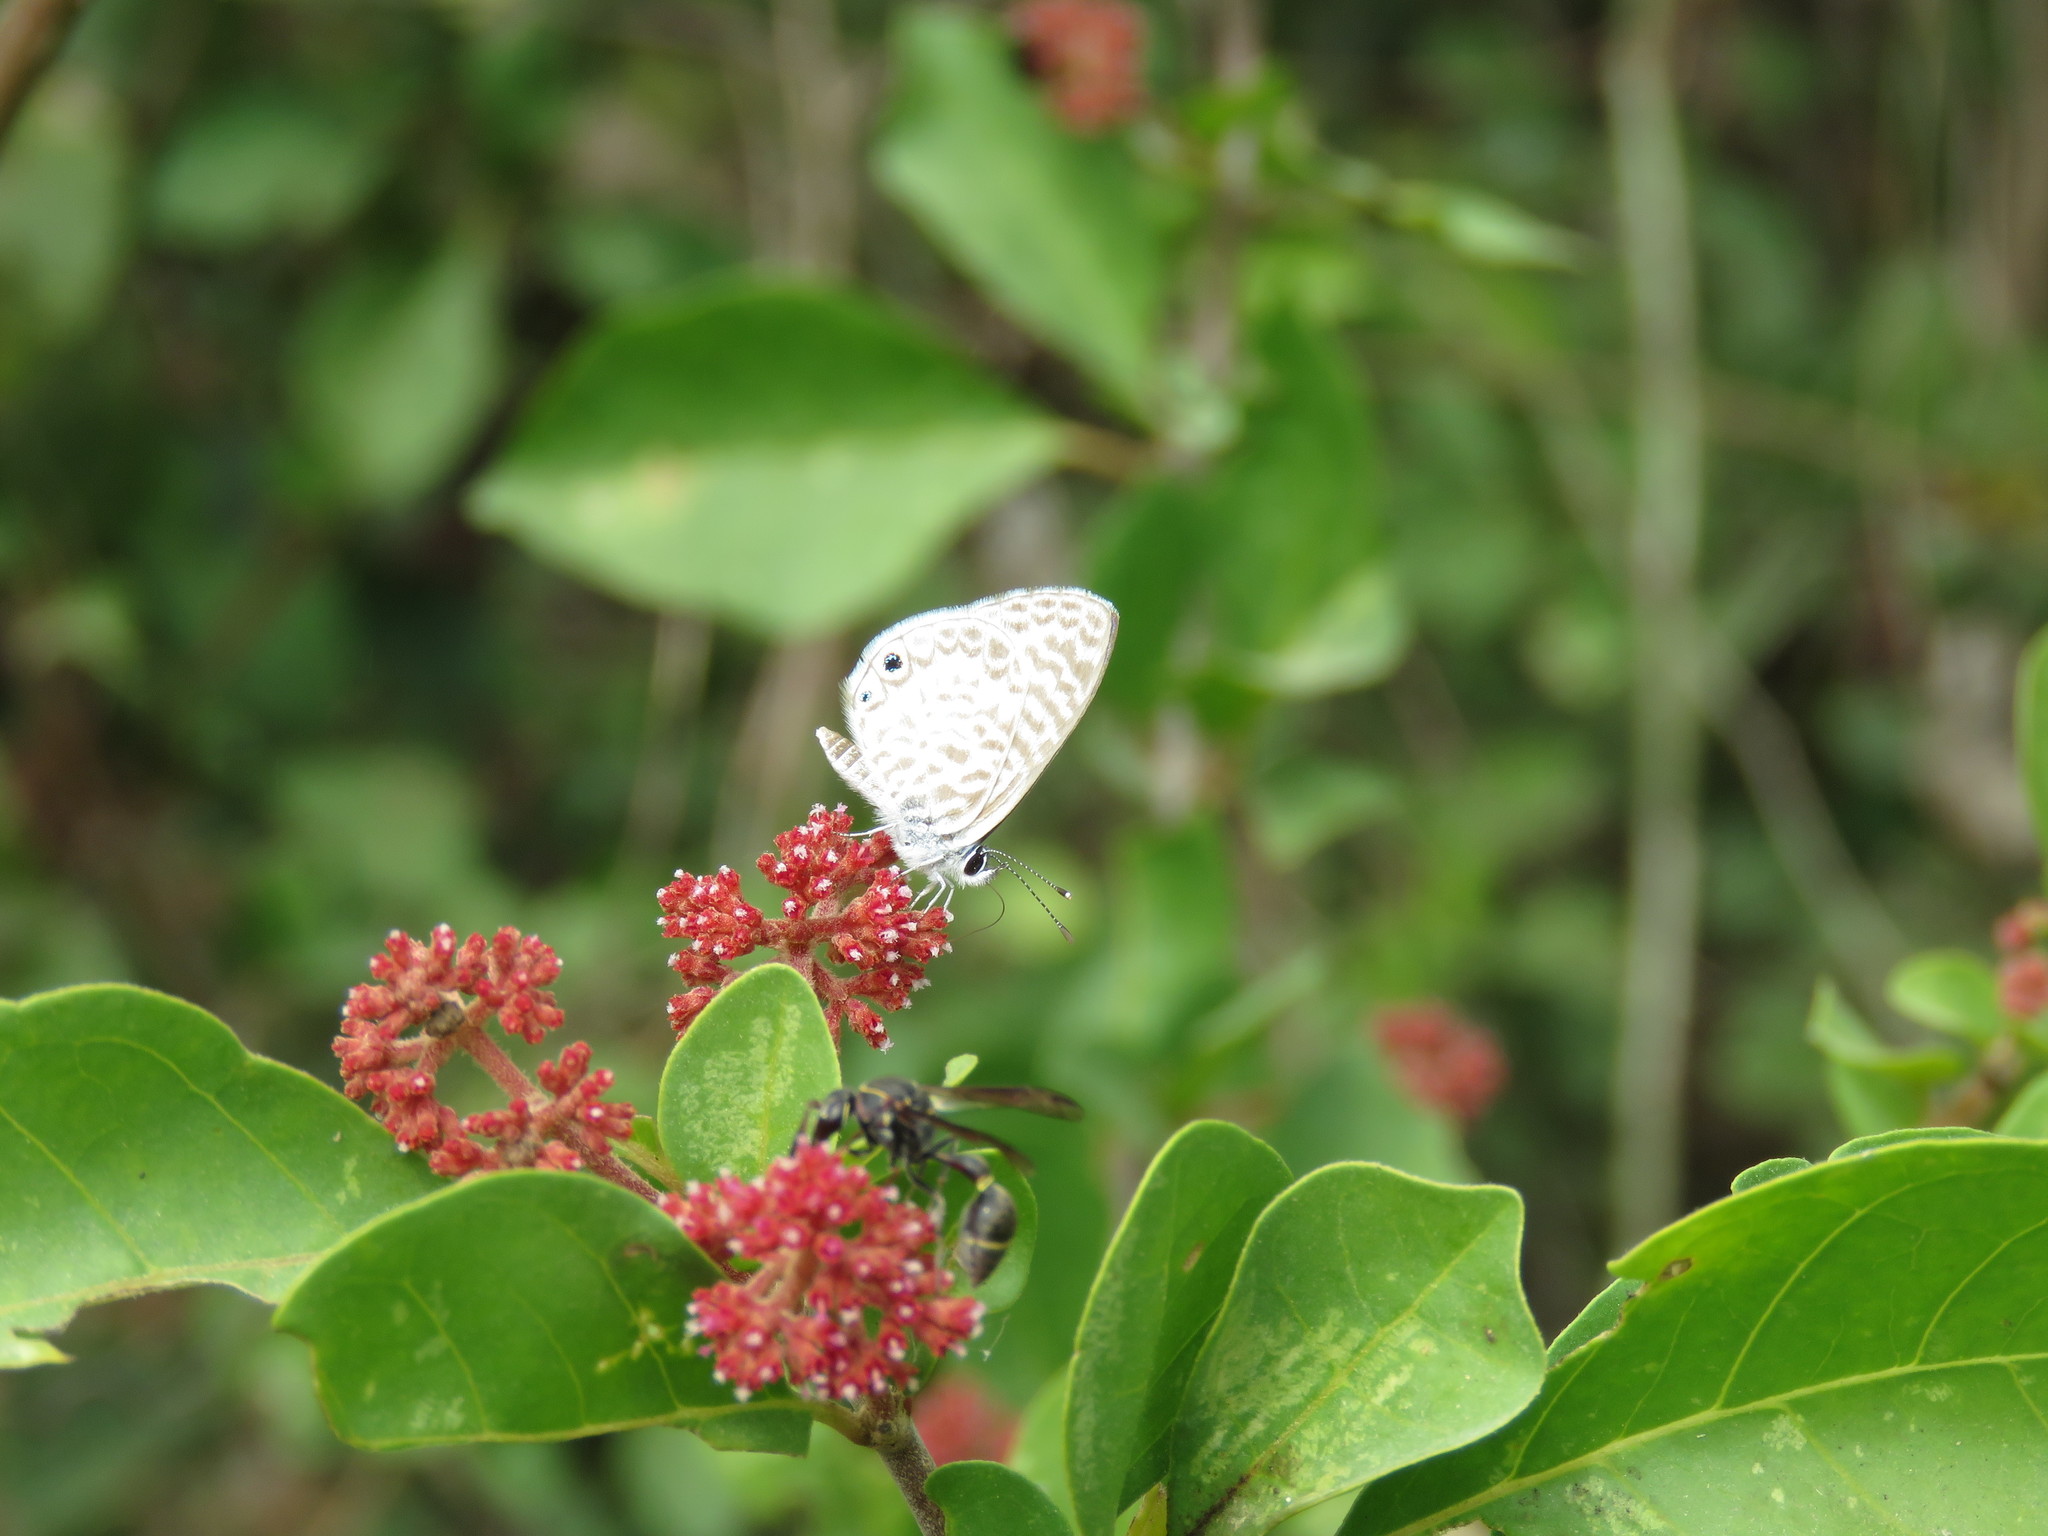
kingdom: Animalia
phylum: Arthropoda
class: Insecta
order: Lepidoptera
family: Lycaenidae
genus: Leptotes
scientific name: Leptotes theonus
